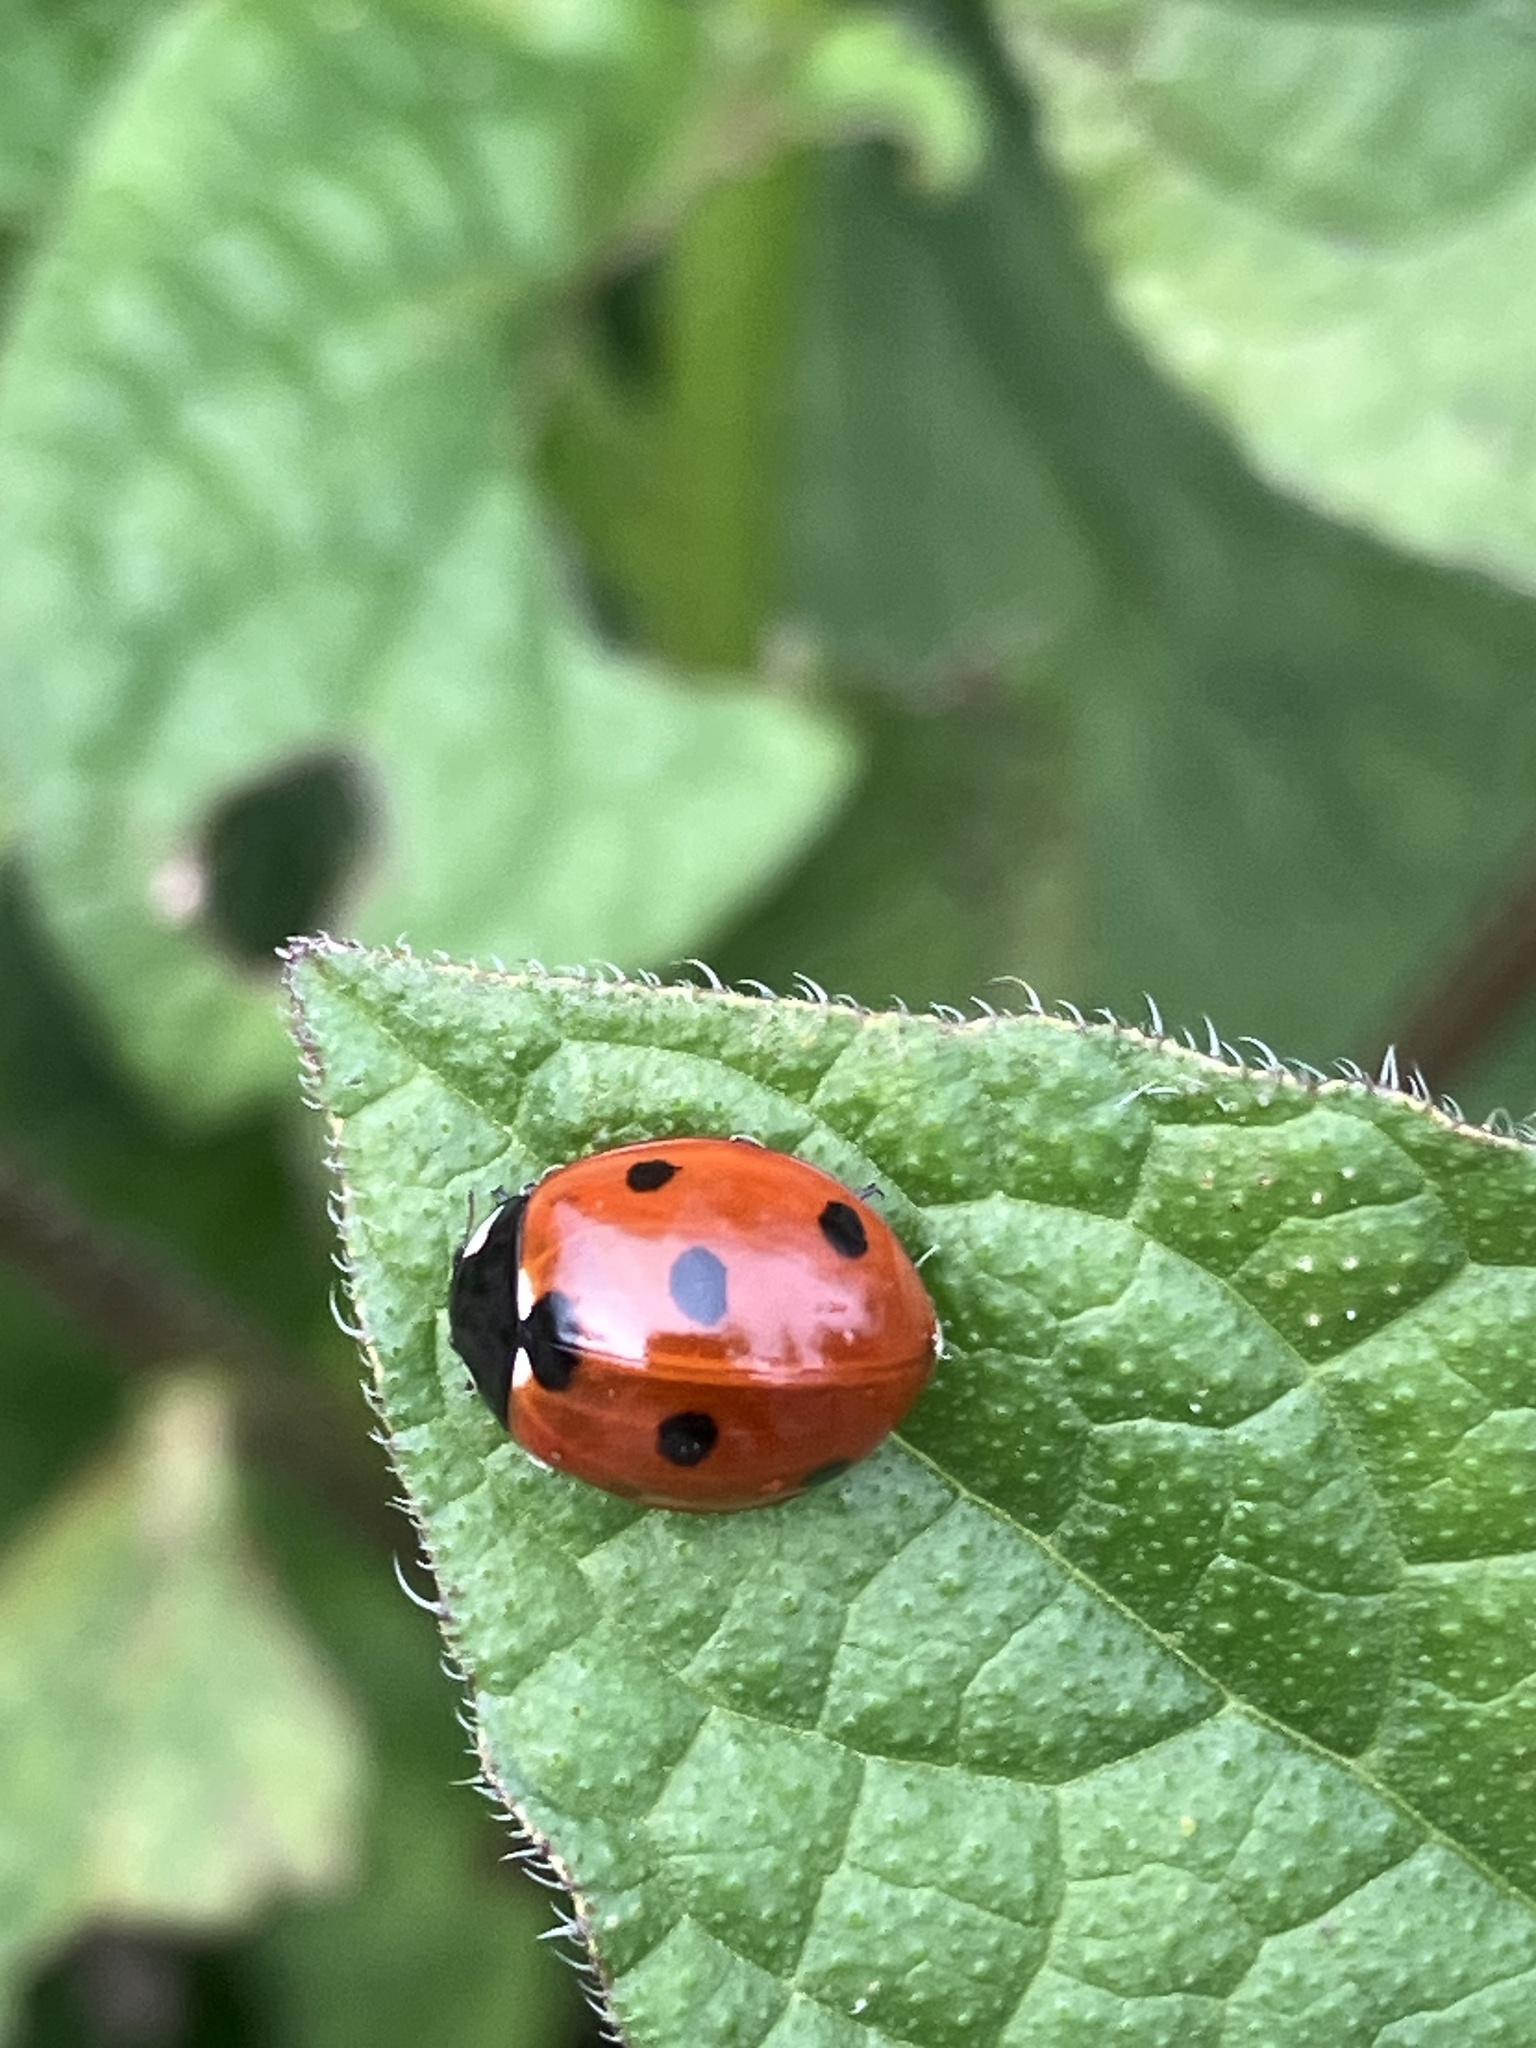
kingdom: Animalia
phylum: Arthropoda
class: Insecta
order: Coleoptera
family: Coccinellidae
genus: Coccinella
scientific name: Coccinella septempunctata
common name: Sevenspotted lady beetle
